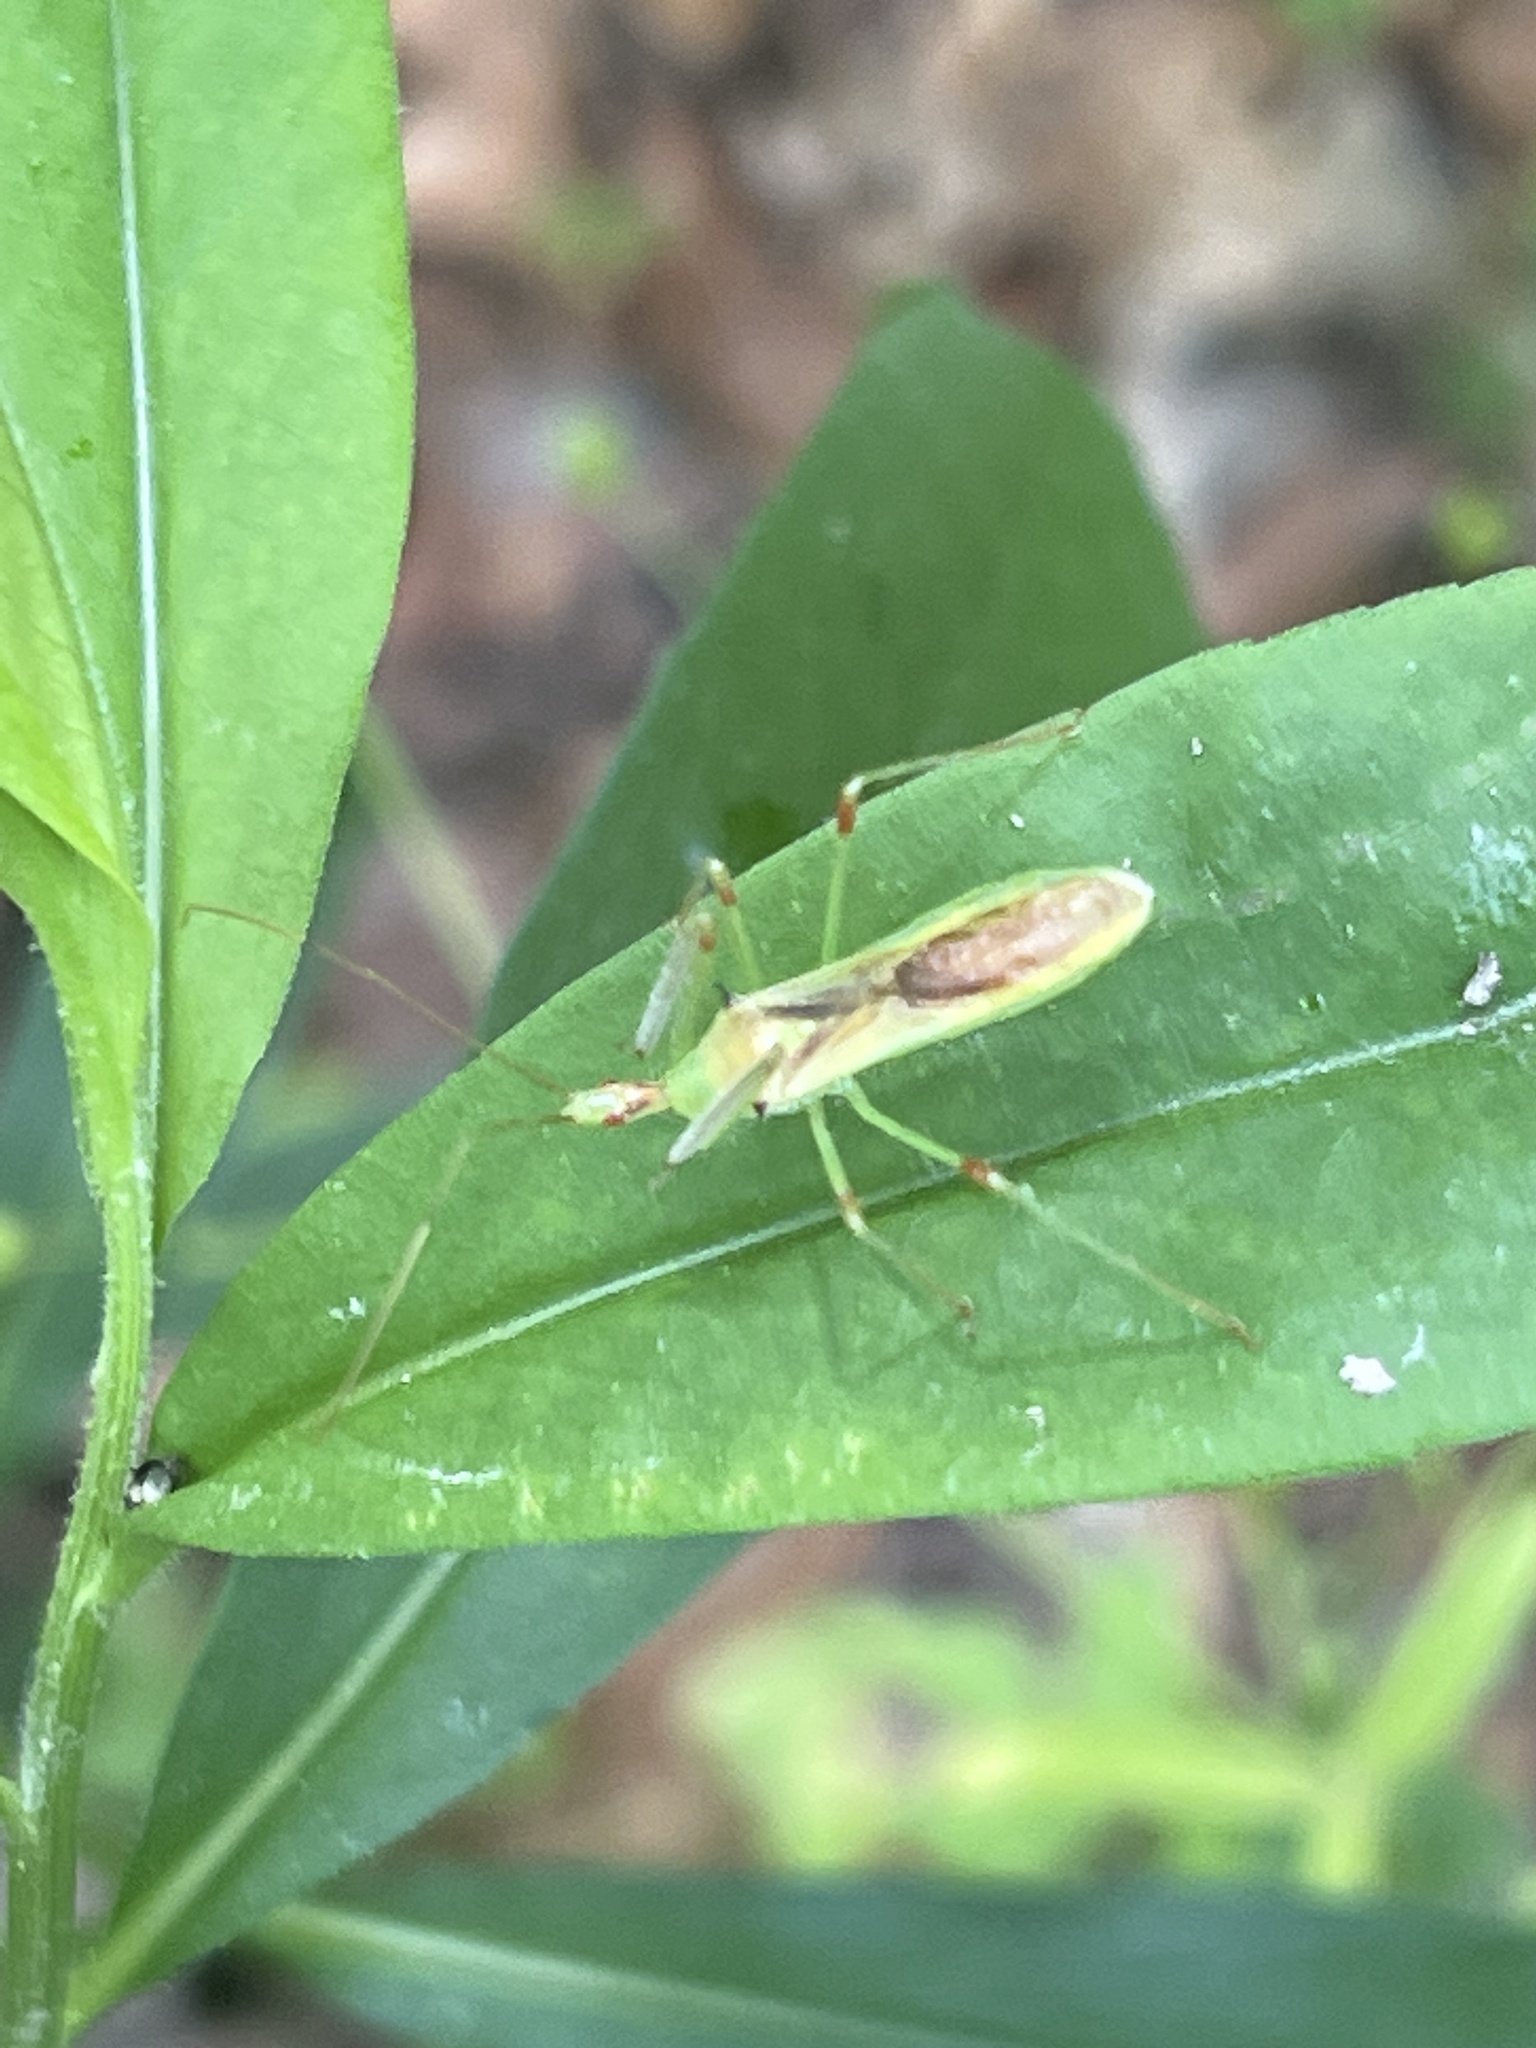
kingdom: Animalia
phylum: Arthropoda
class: Insecta
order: Hemiptera
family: Reduviidae
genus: Zelus
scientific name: Zelus luridus
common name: Pale green assassin bug
